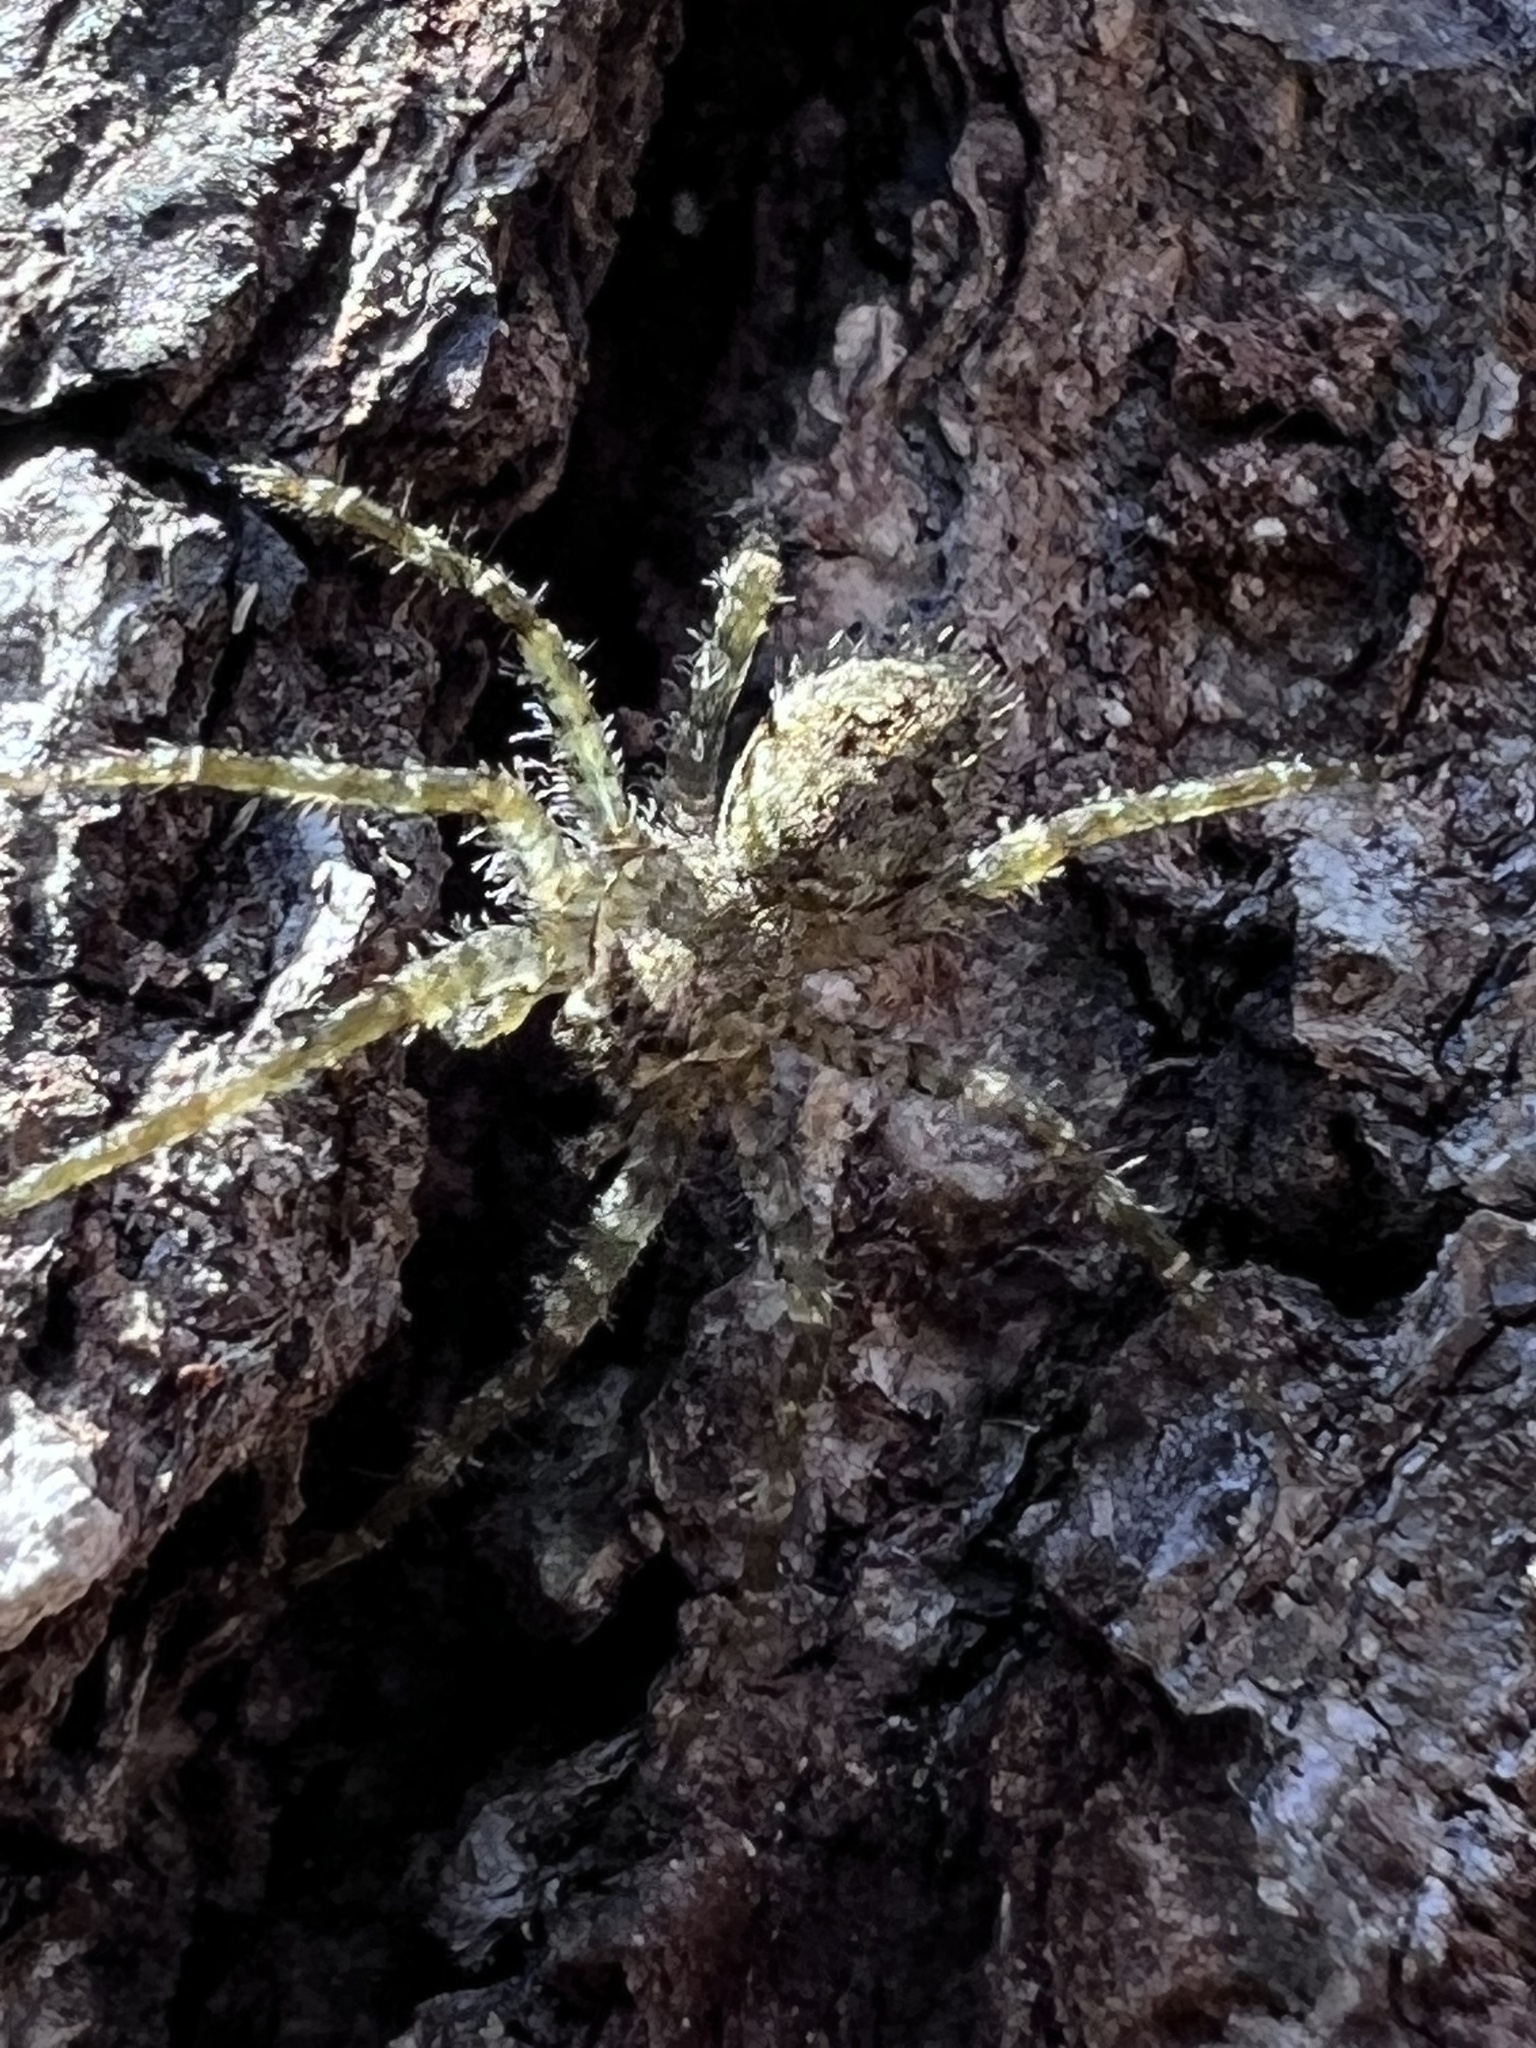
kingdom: Animalia
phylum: Arthropoda
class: Arachnida
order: Araneae
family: Pisauridae
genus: Dolomedes
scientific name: Dolomedes albineus
